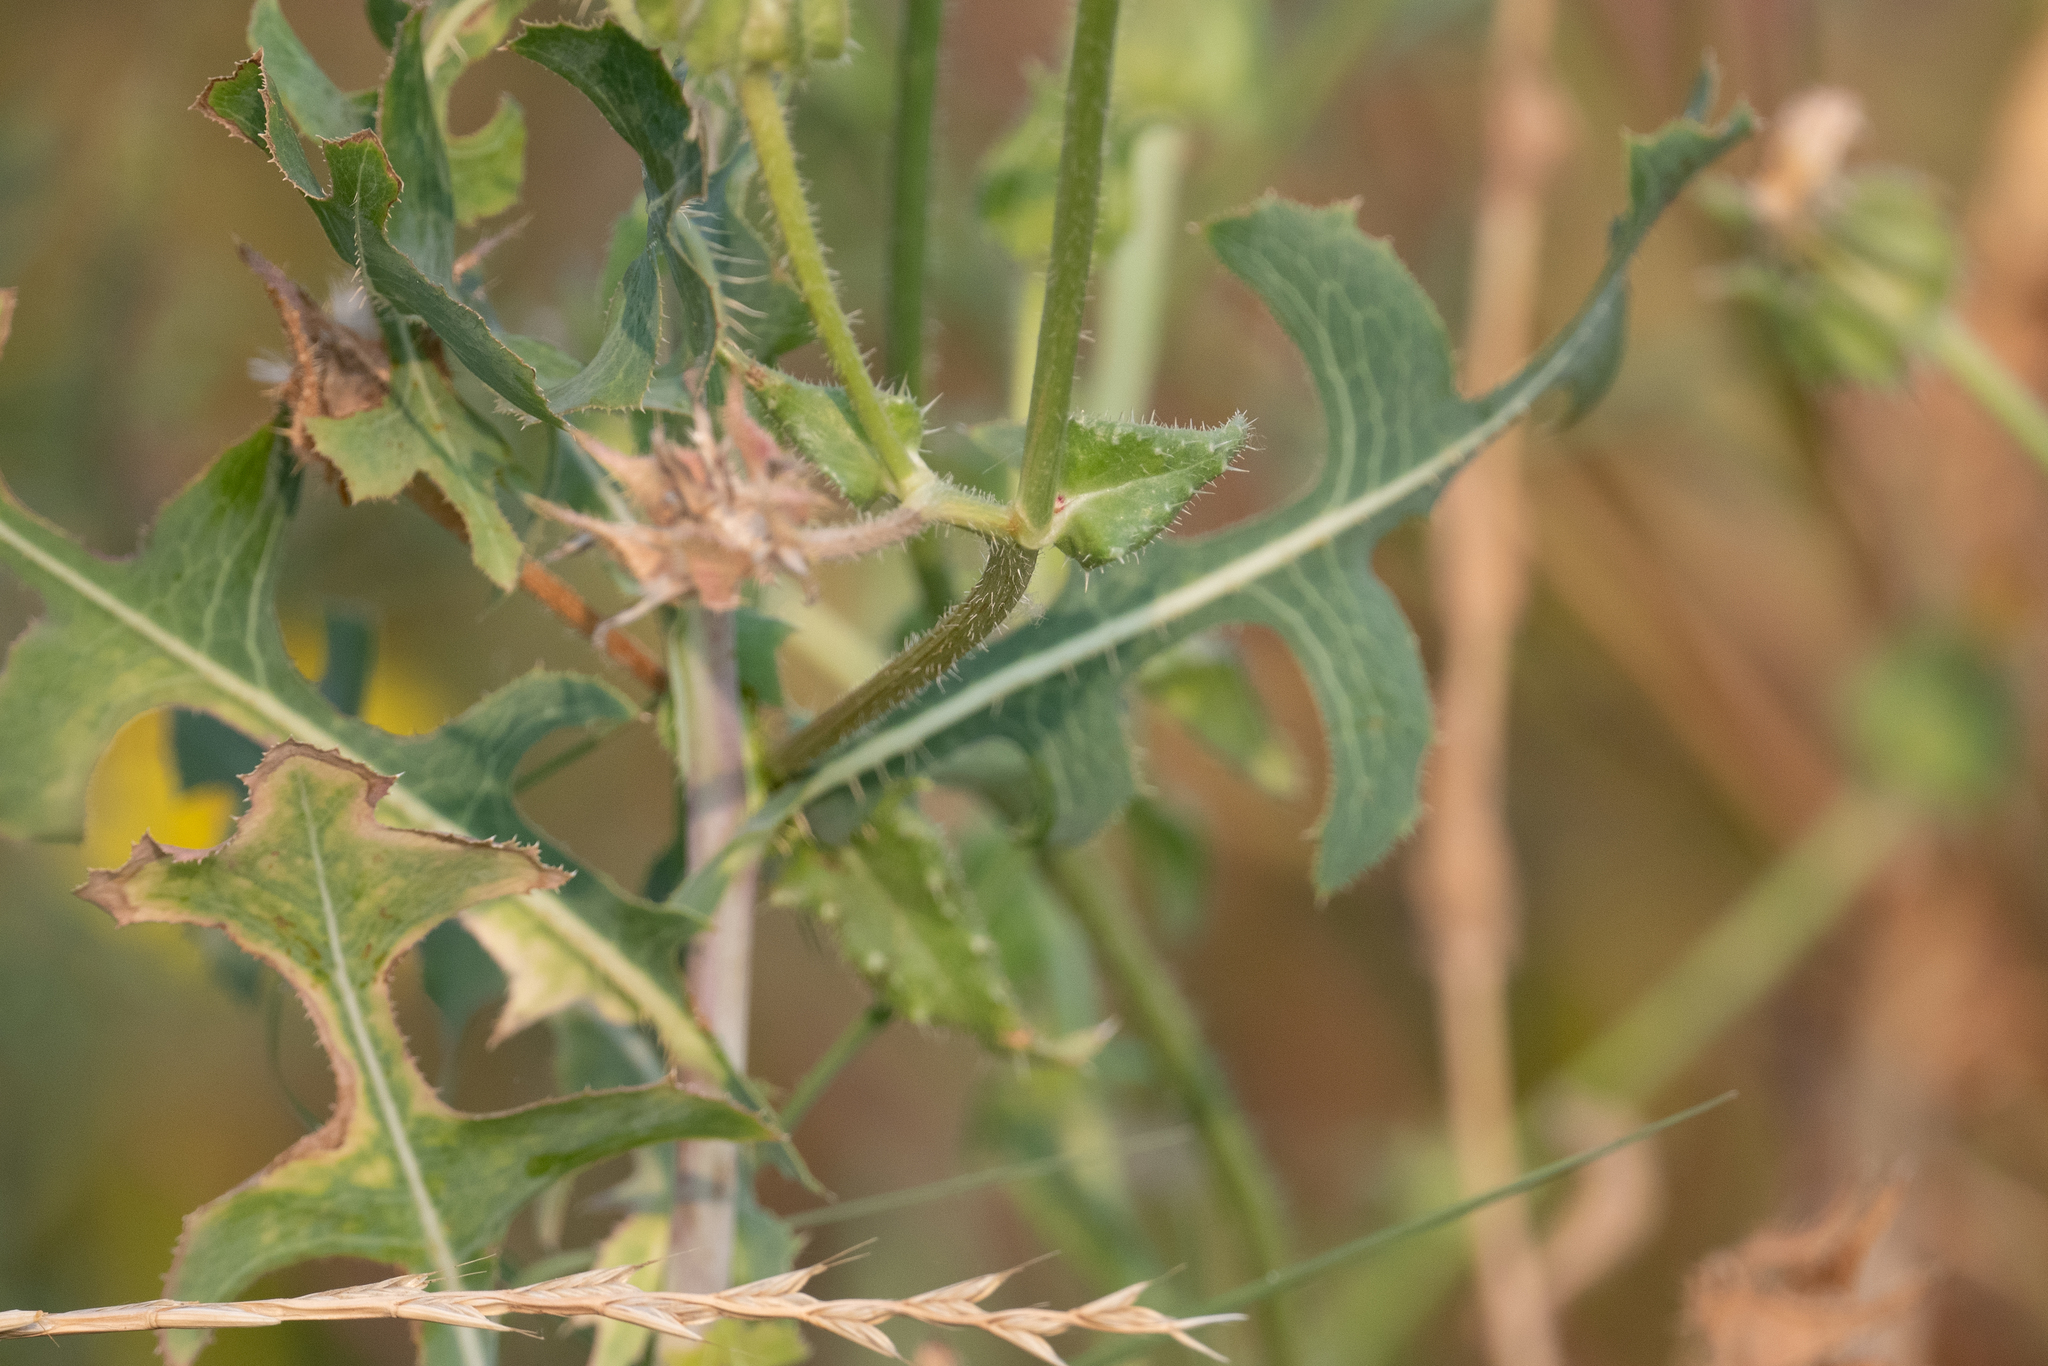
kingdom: Plantae
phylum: Tracheophyta
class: Magnoliopsida
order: Asterales
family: Asteraceae
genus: Helminthotheca
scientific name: Helminthotheca echioides
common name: Ox-tongue
